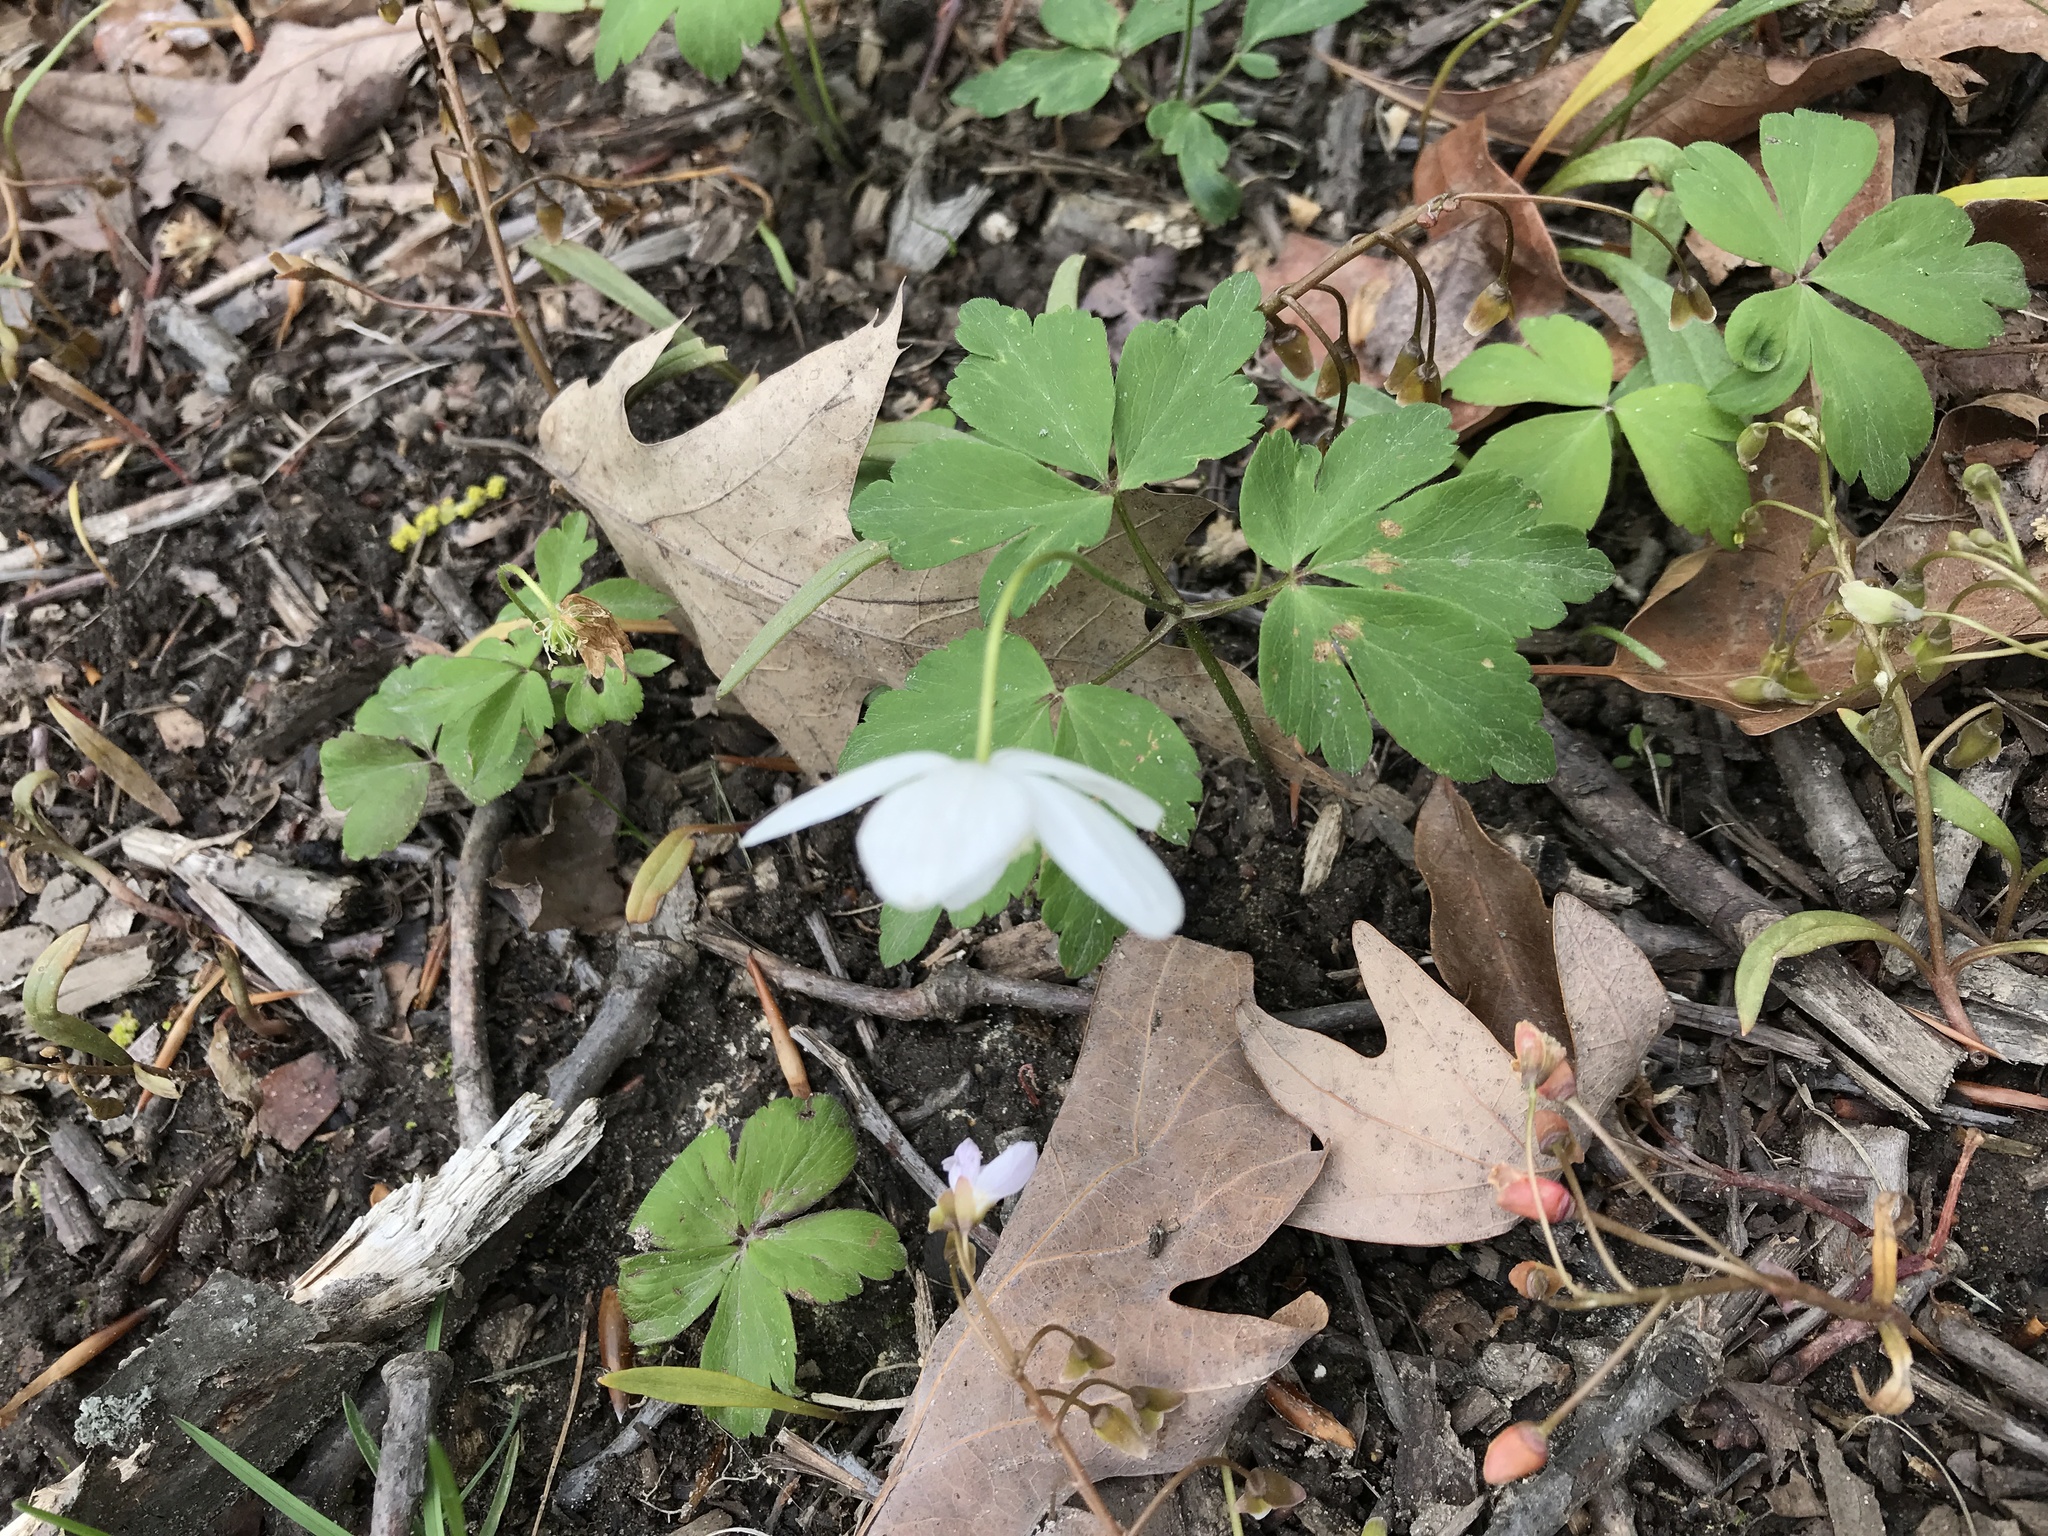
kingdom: Plantae
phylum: Tracheophyta
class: Magnoliopsida
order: Ranunculales
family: Ranunculaceae
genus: Anemone
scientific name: Anemone quinquefolia
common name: Wood anemone
